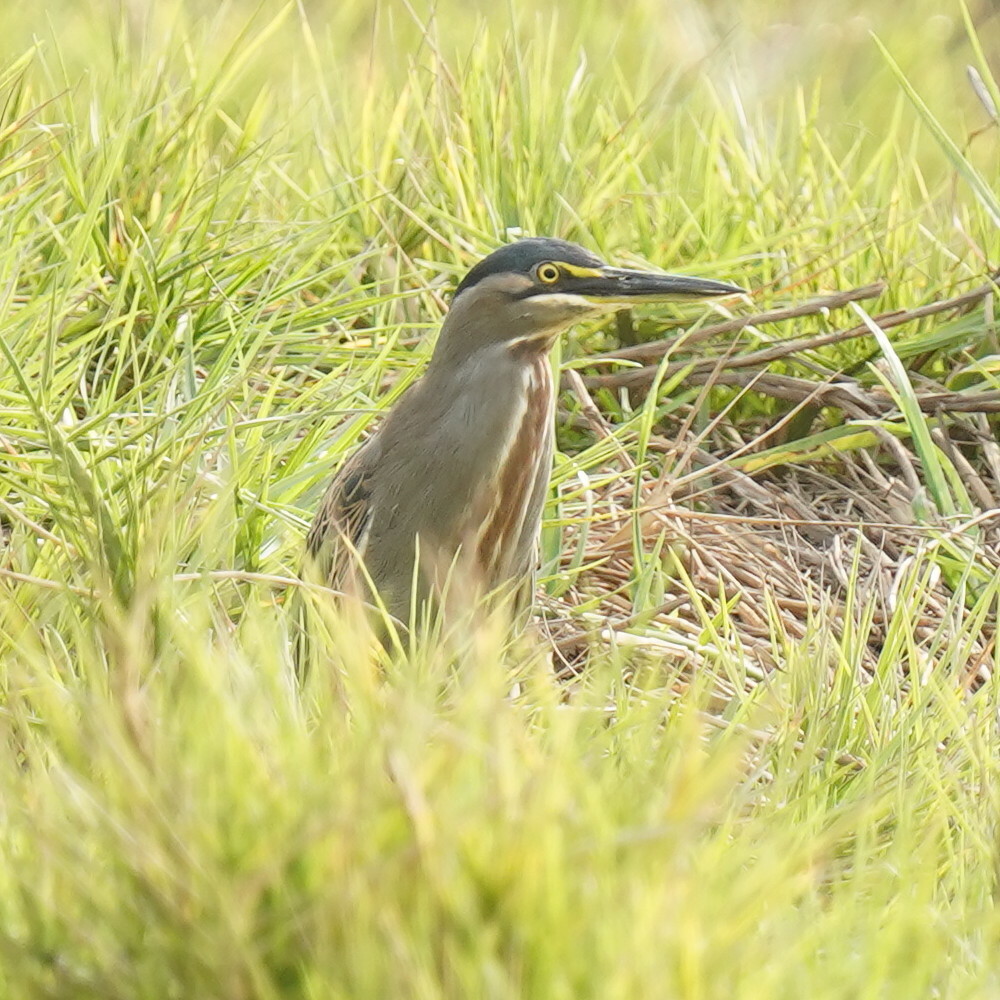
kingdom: Animalia
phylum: Chordata
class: Aves
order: Pelecaniformes
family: Ardeidae
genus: Butorides
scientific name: Butorides striata
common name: Striated heron
